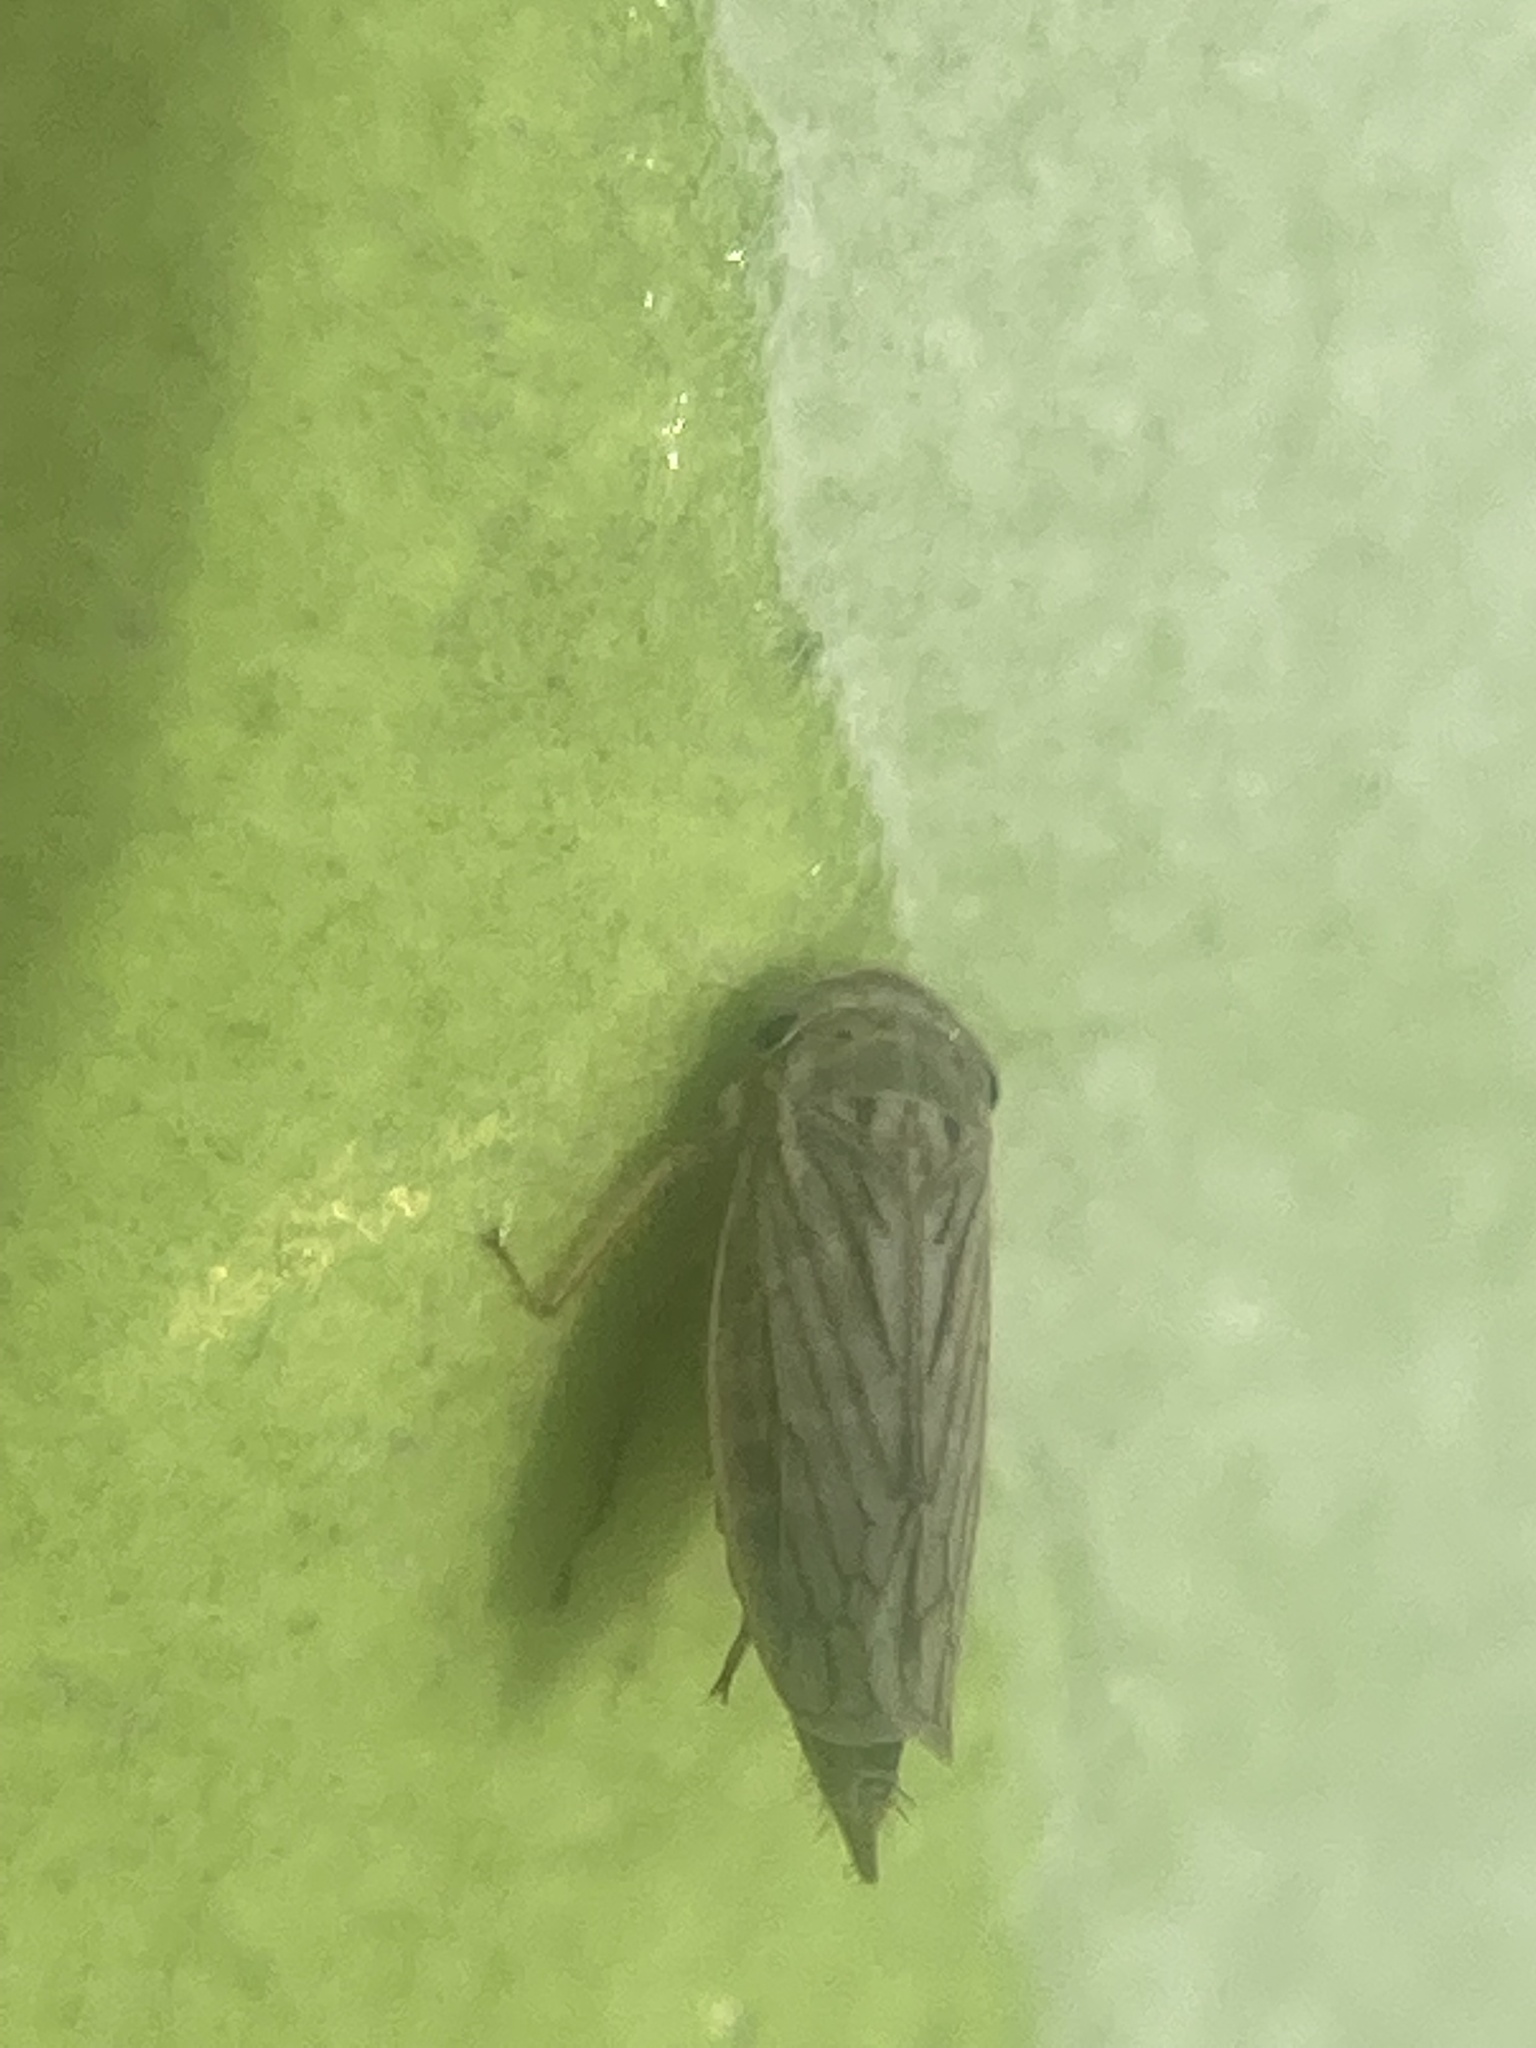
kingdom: Animalia
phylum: Arthropoda
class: Insecta
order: Hemiptera
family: Cicadellidae
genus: Exitianus
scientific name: Exitianus exitiosus
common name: Gray lawn leafhopper
